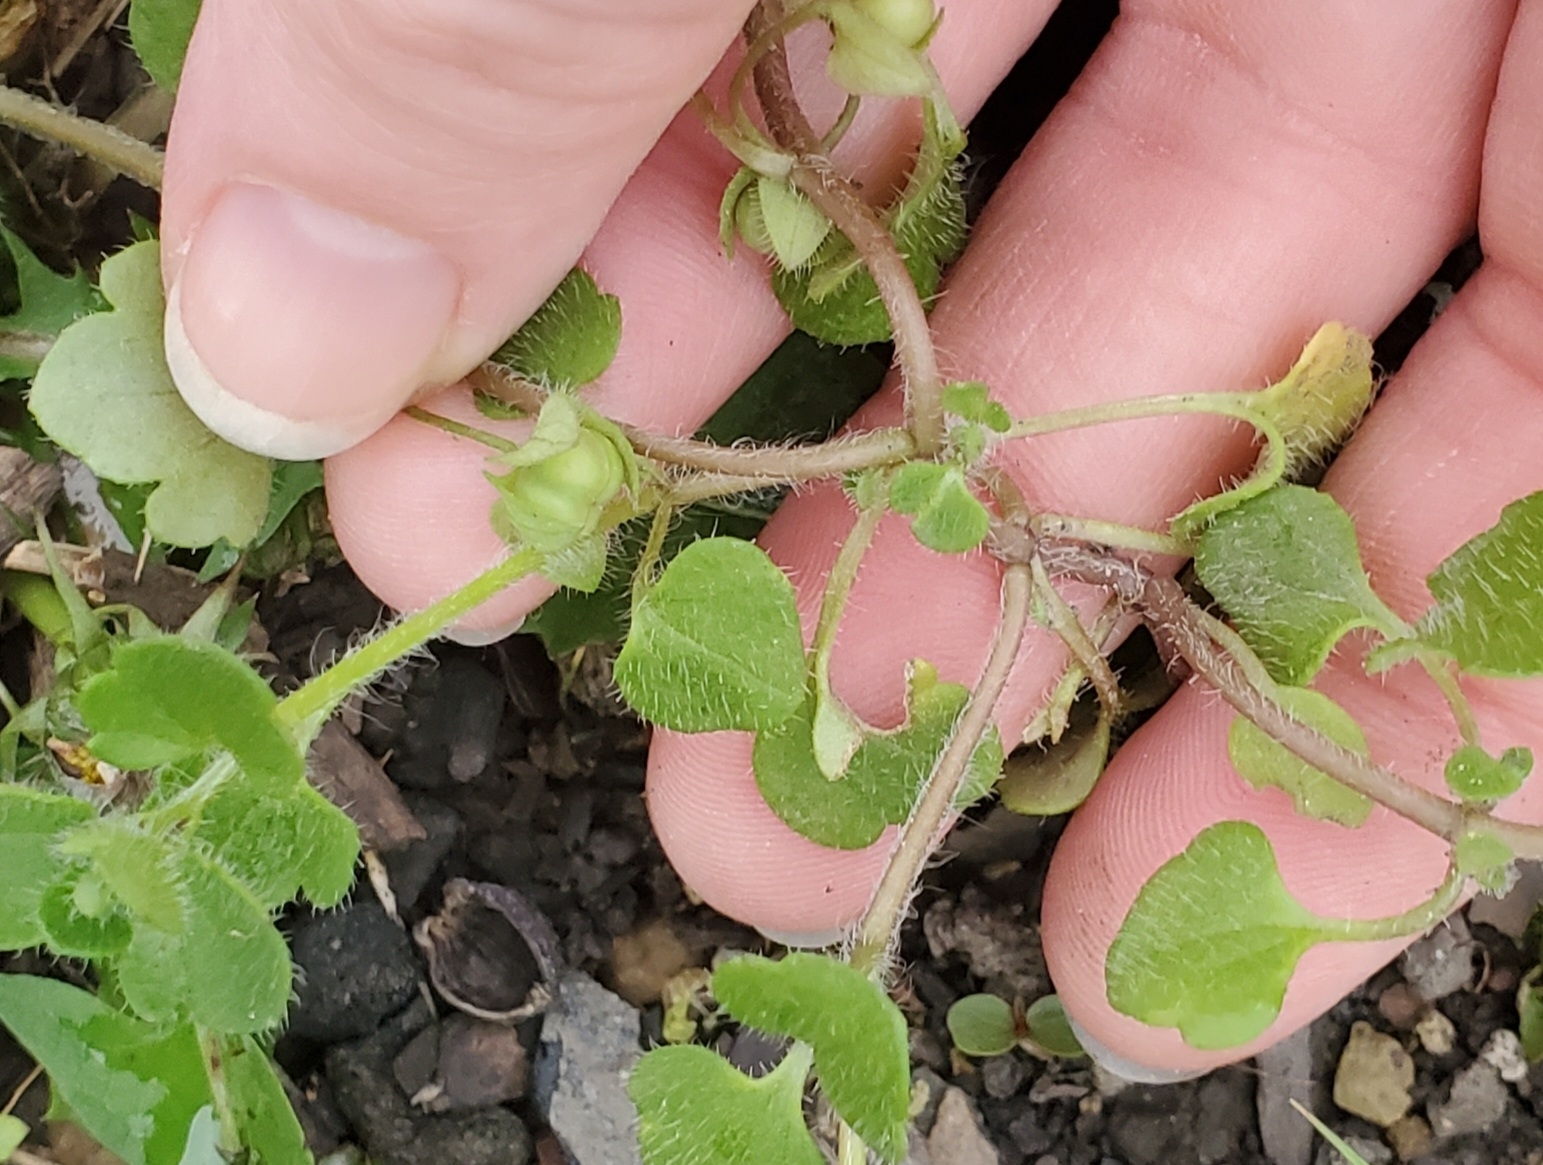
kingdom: Plantae
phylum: Tracheophyta
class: Magnoliopsida
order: Lamiales
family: Plantaginaceae
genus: Veronica
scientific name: Veronica hederifolia
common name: Ivy-leaved speedwell
